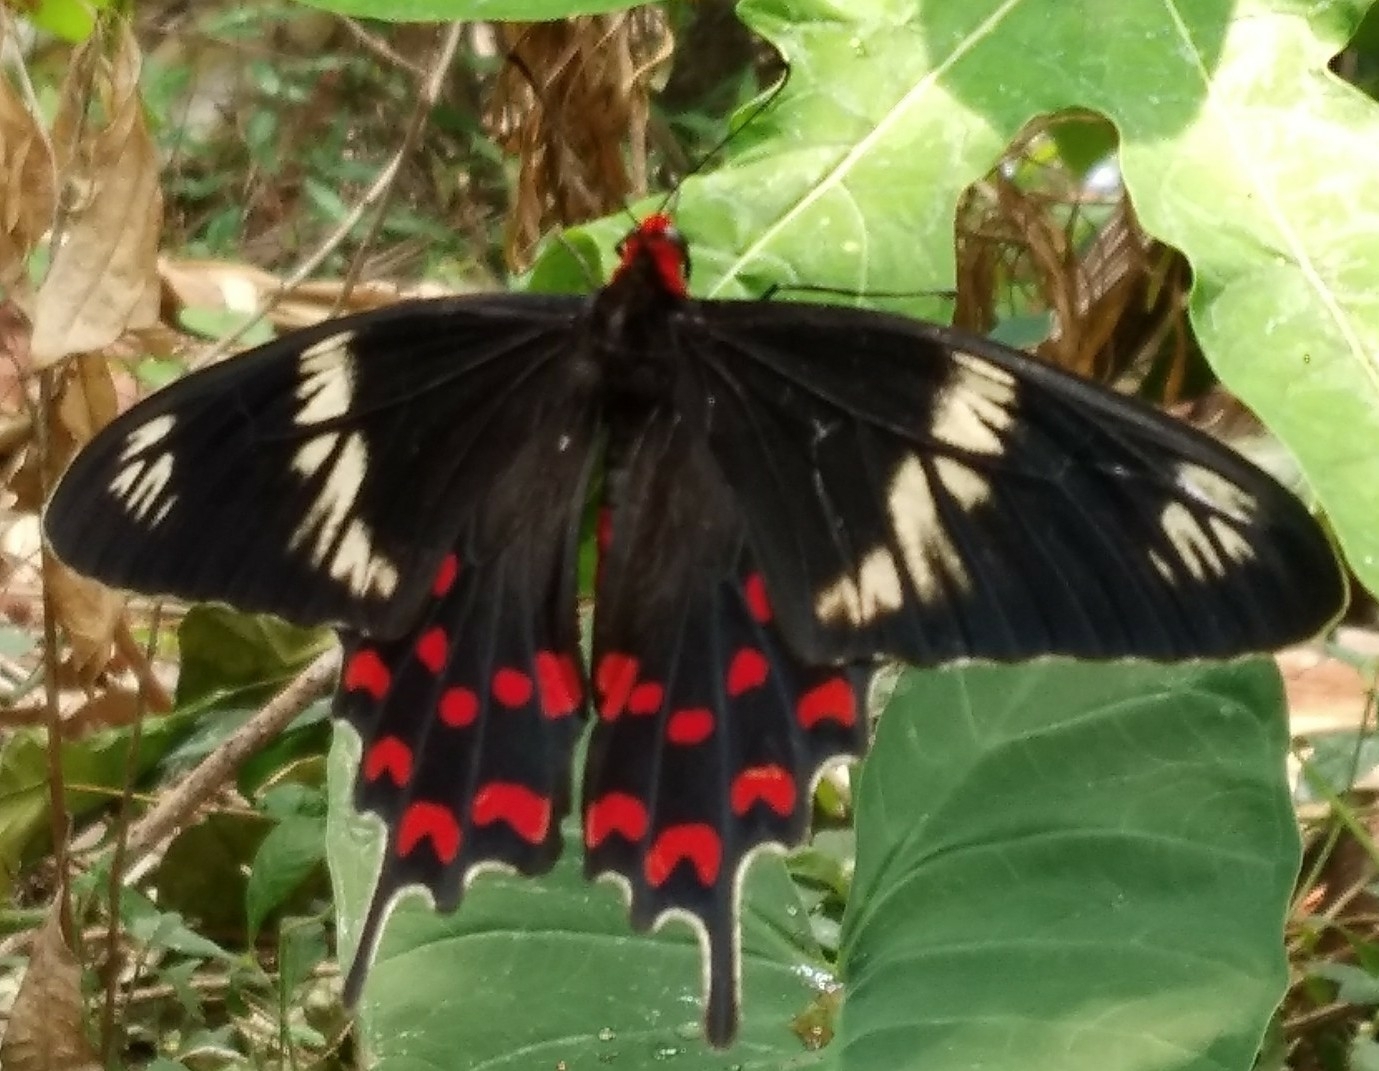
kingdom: Animalia
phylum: Arthropoda
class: Insecta
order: Lepidoptera
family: Papilionidae
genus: Pachliopta
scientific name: Pachliopta hector
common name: Crimson rose
